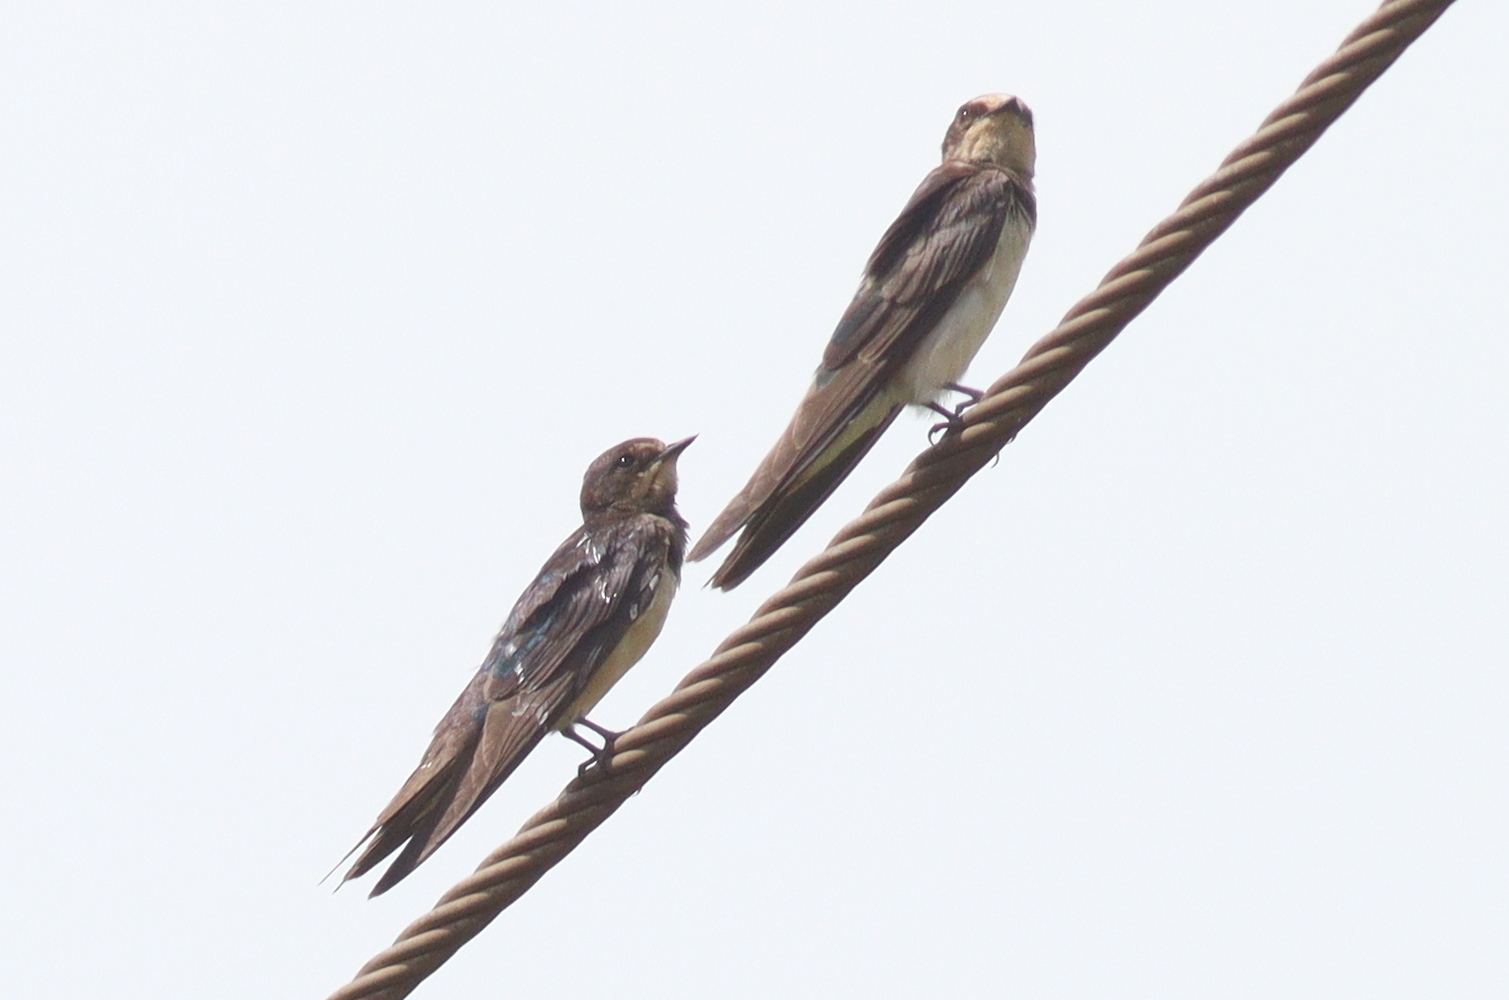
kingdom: Animalia
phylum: Chordata
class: Aves
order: Passeriformes
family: Hirundinidae
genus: Hirundo
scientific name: Hirundo rustica
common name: Barn swallow
